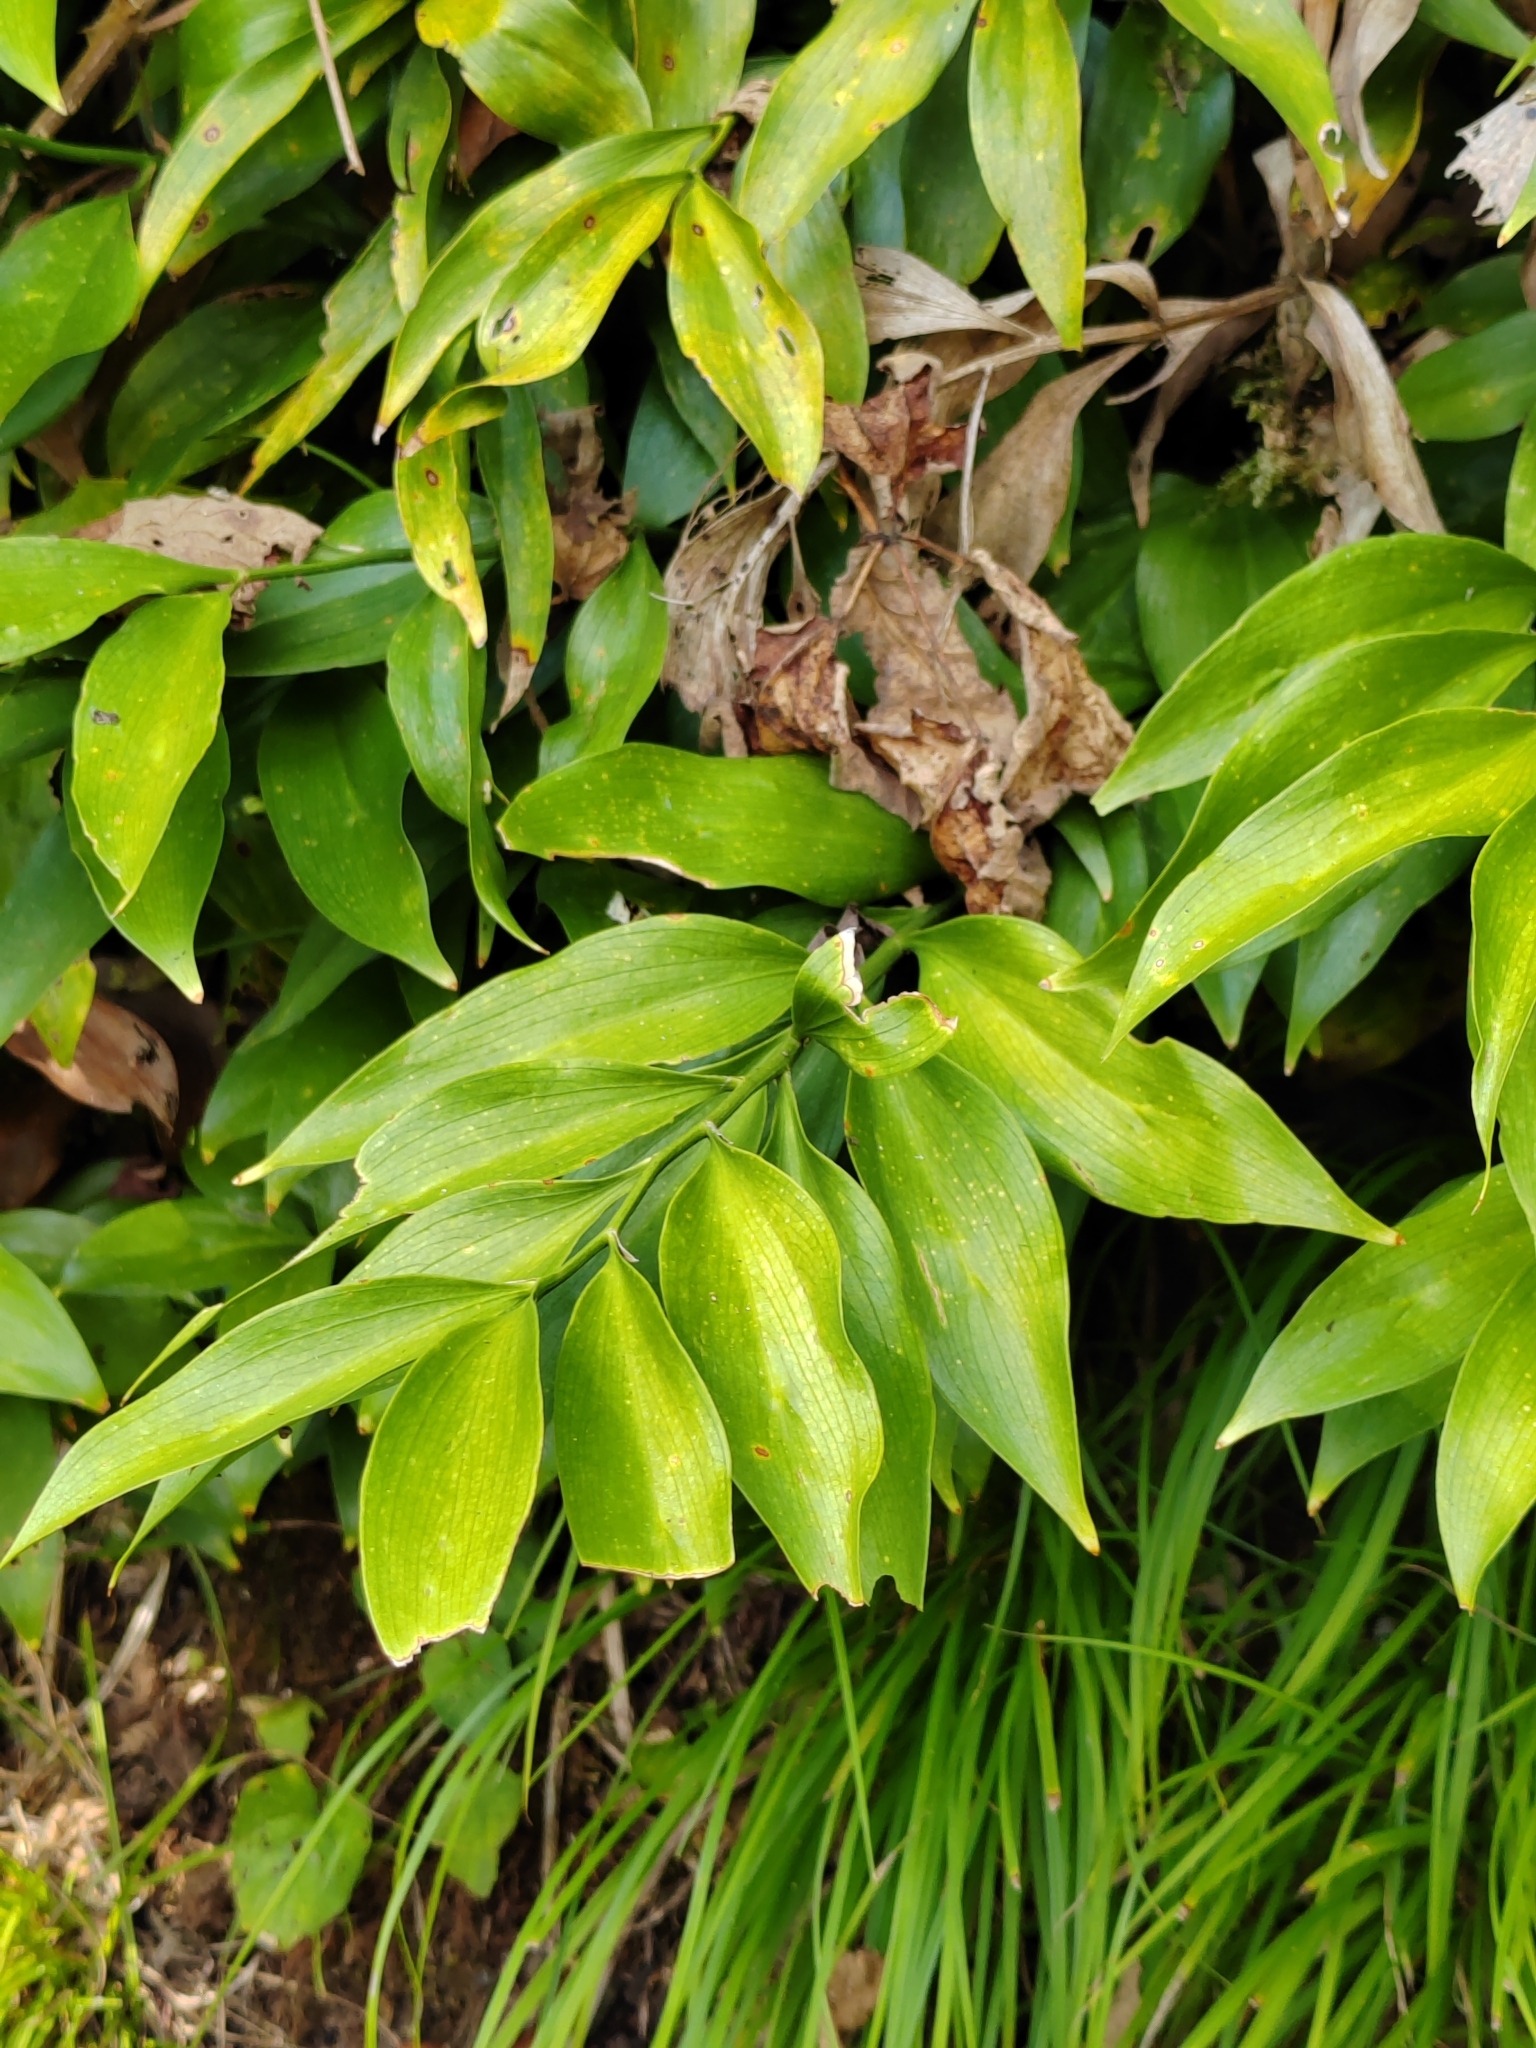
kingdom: Plantae
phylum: Tracheophyta
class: Liliopsida
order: Asparagales
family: Asparagaceae
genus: Ruscus
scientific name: Ruscus colchicus
